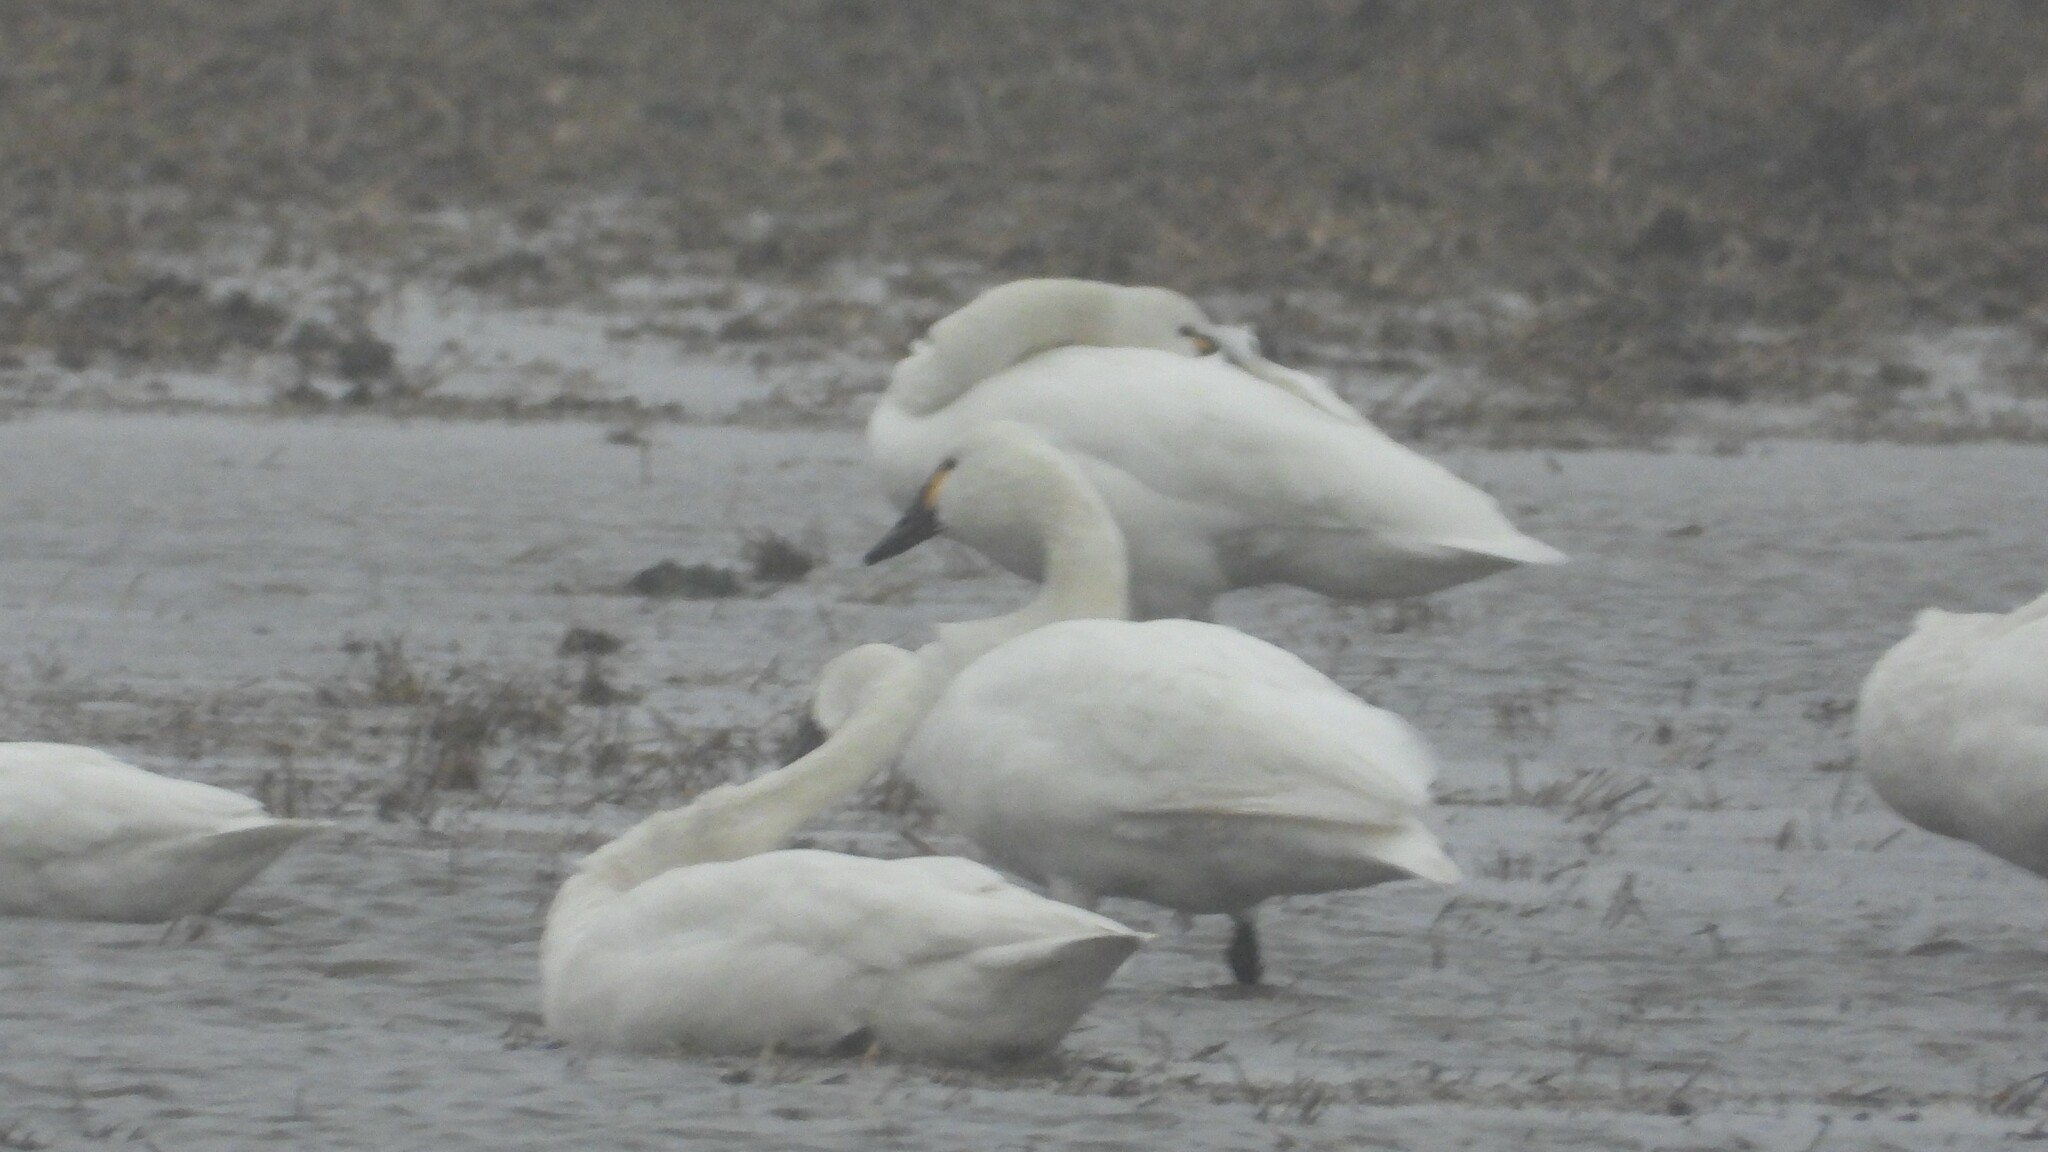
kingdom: Animalia
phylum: Chordata
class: Aves
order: Anseriformes
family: Anatidae
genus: Cygnus
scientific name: Cygnus columbianus
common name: Tundra swan
